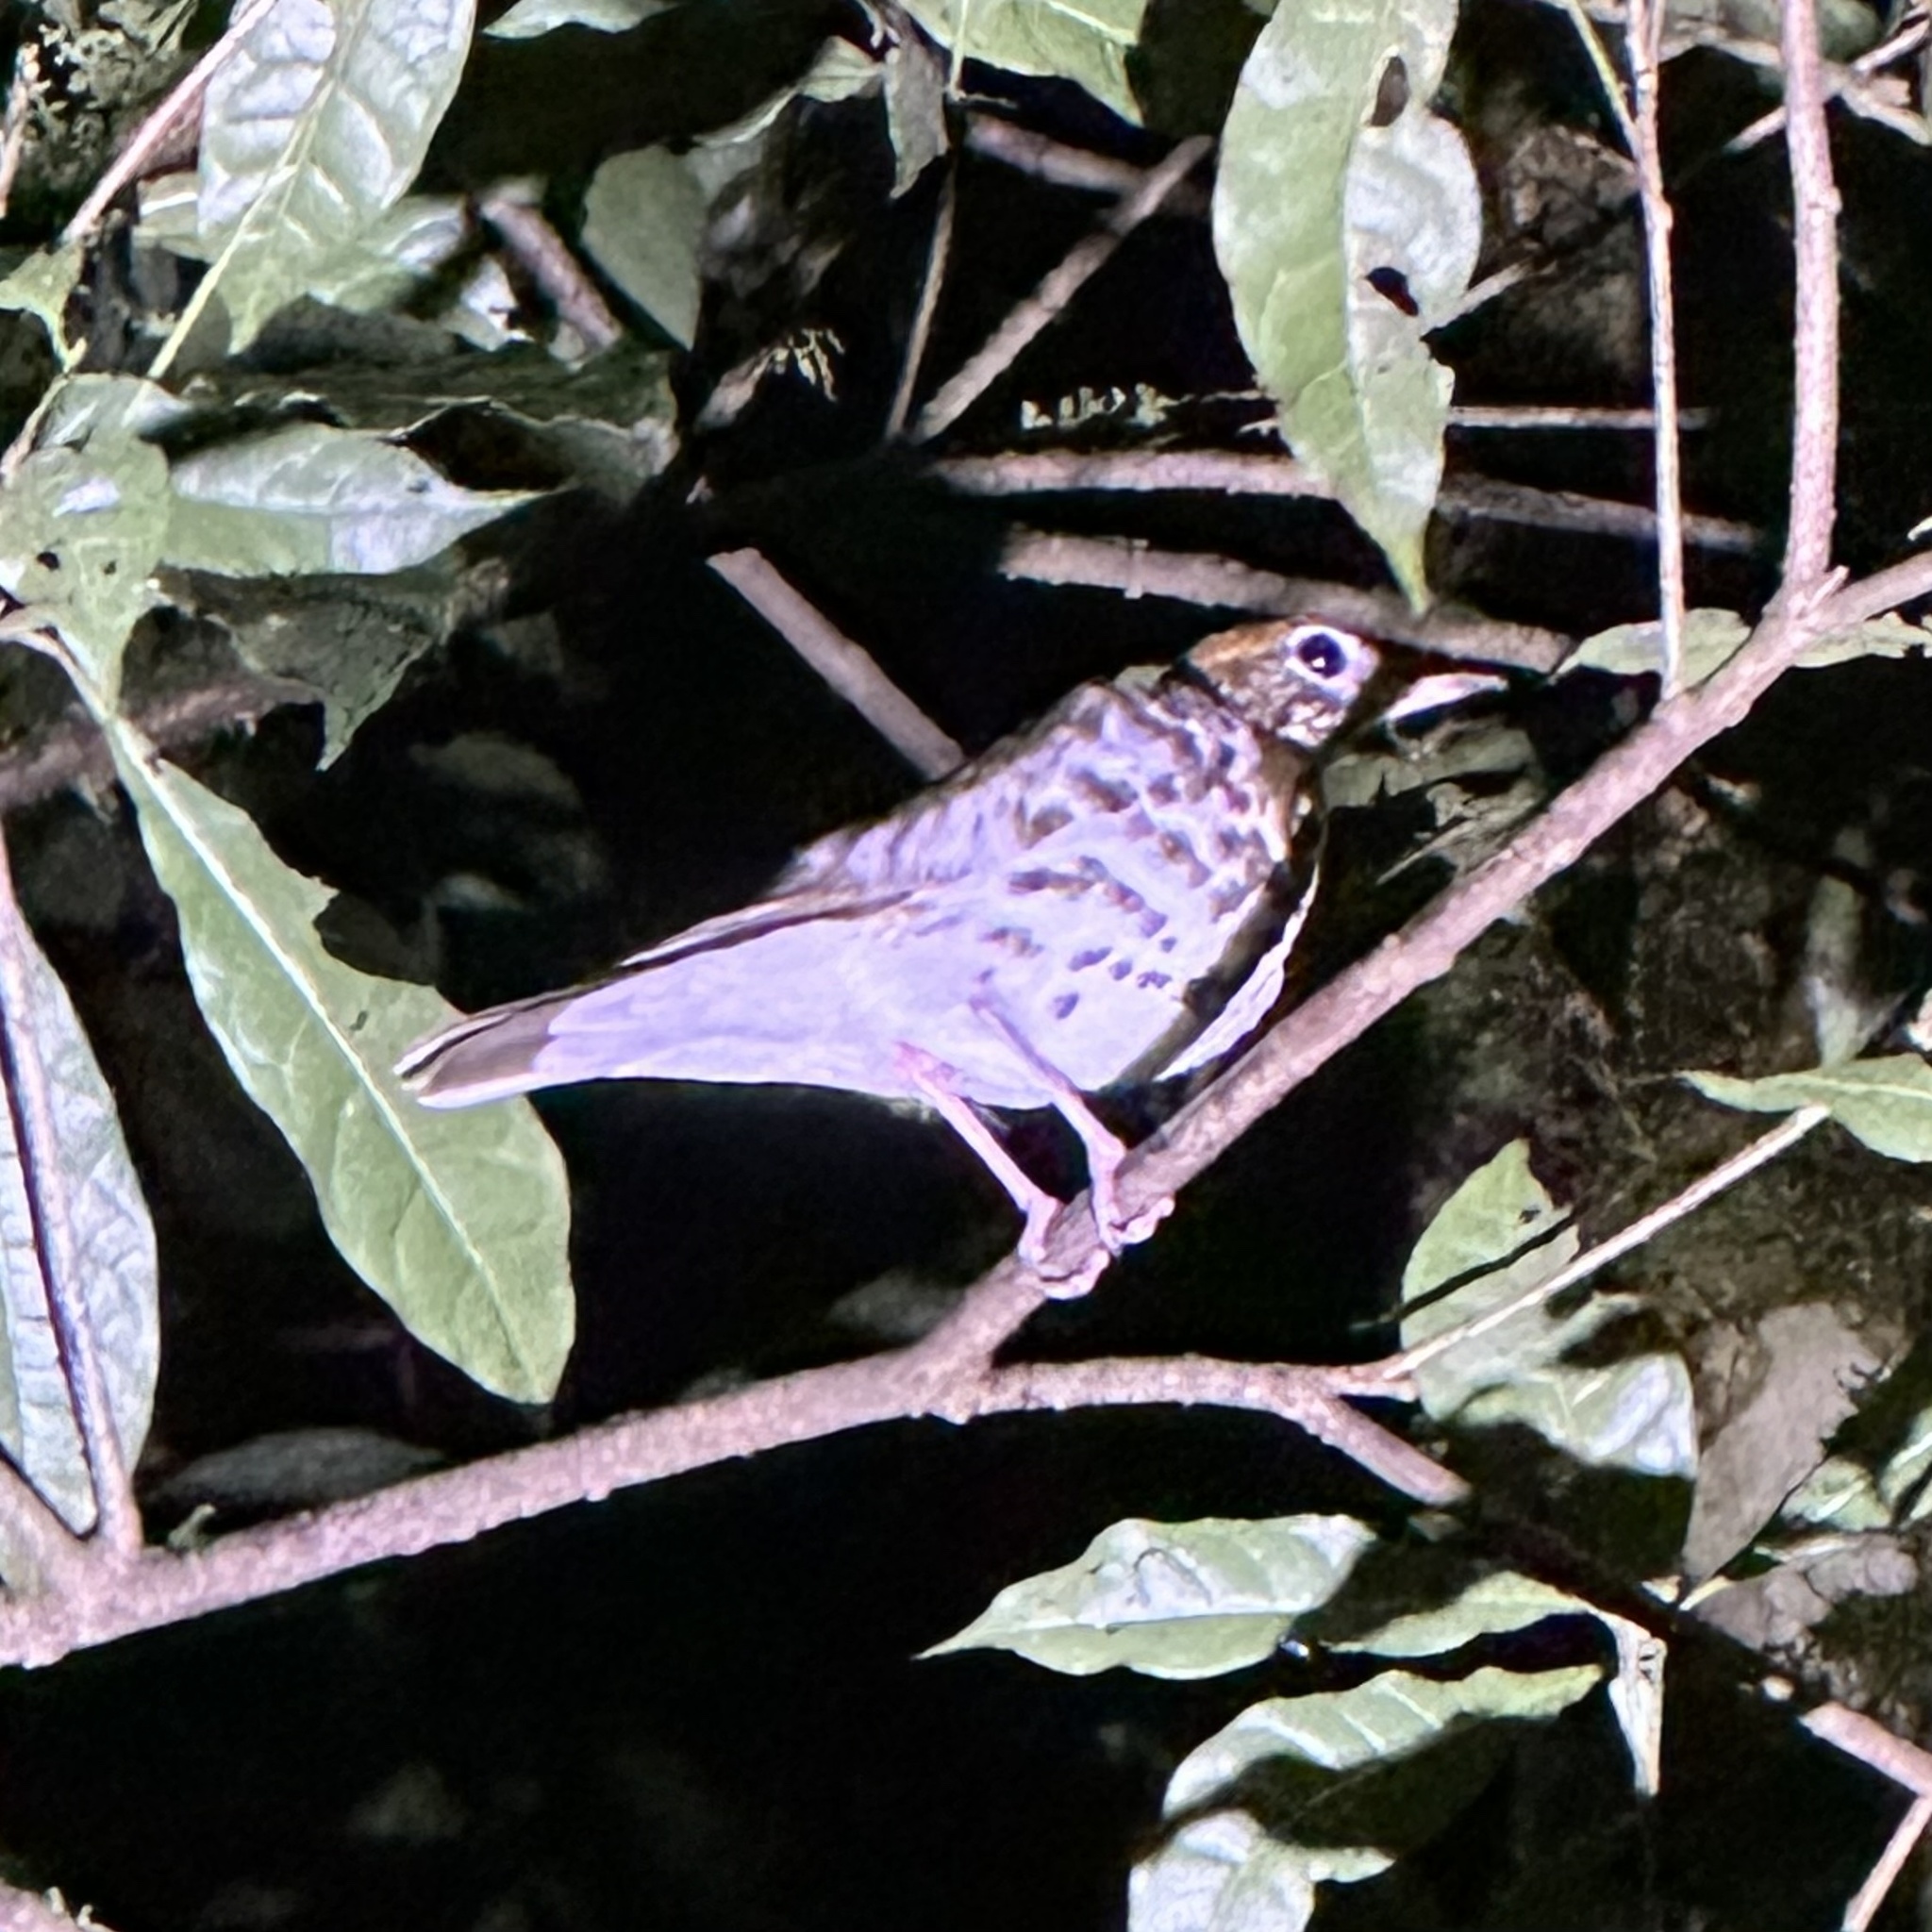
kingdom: Animalia
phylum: Chordata
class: Aves
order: Passeriformes
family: Turdidae
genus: Hylocichla
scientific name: Hylocichla mustelina
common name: Wood thrush
